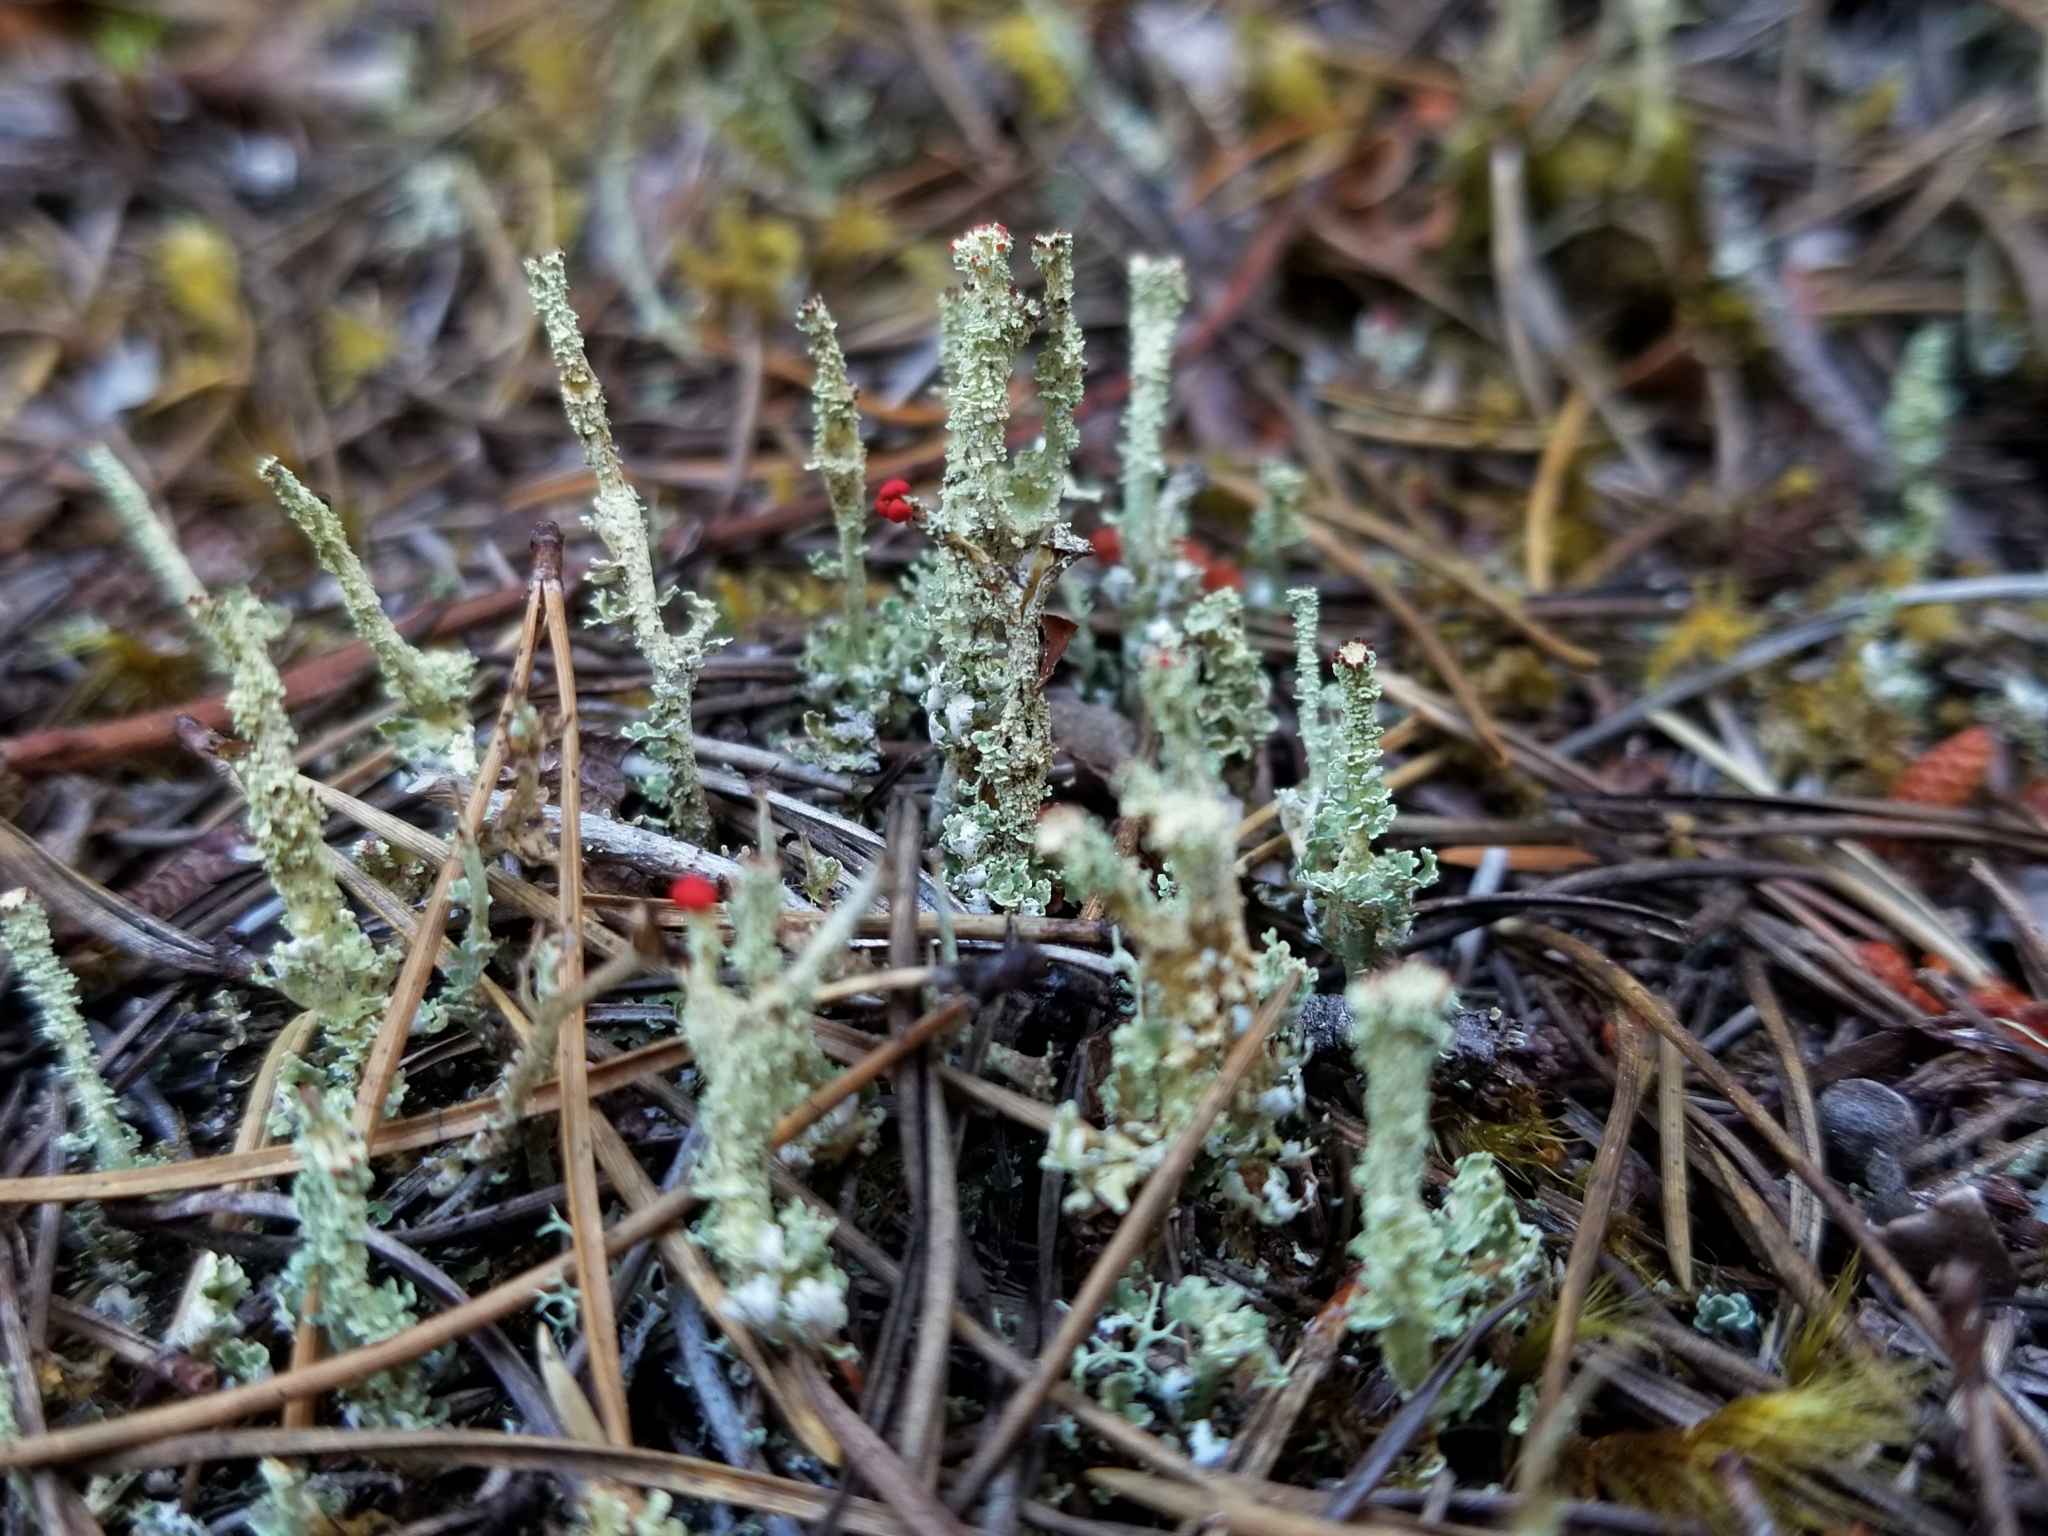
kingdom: Fungi
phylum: Ascomycota
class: Lecanoromycetes
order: Lecanorales
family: Cladoniaceae
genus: Cladonia
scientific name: Cladonia bellidiflora
